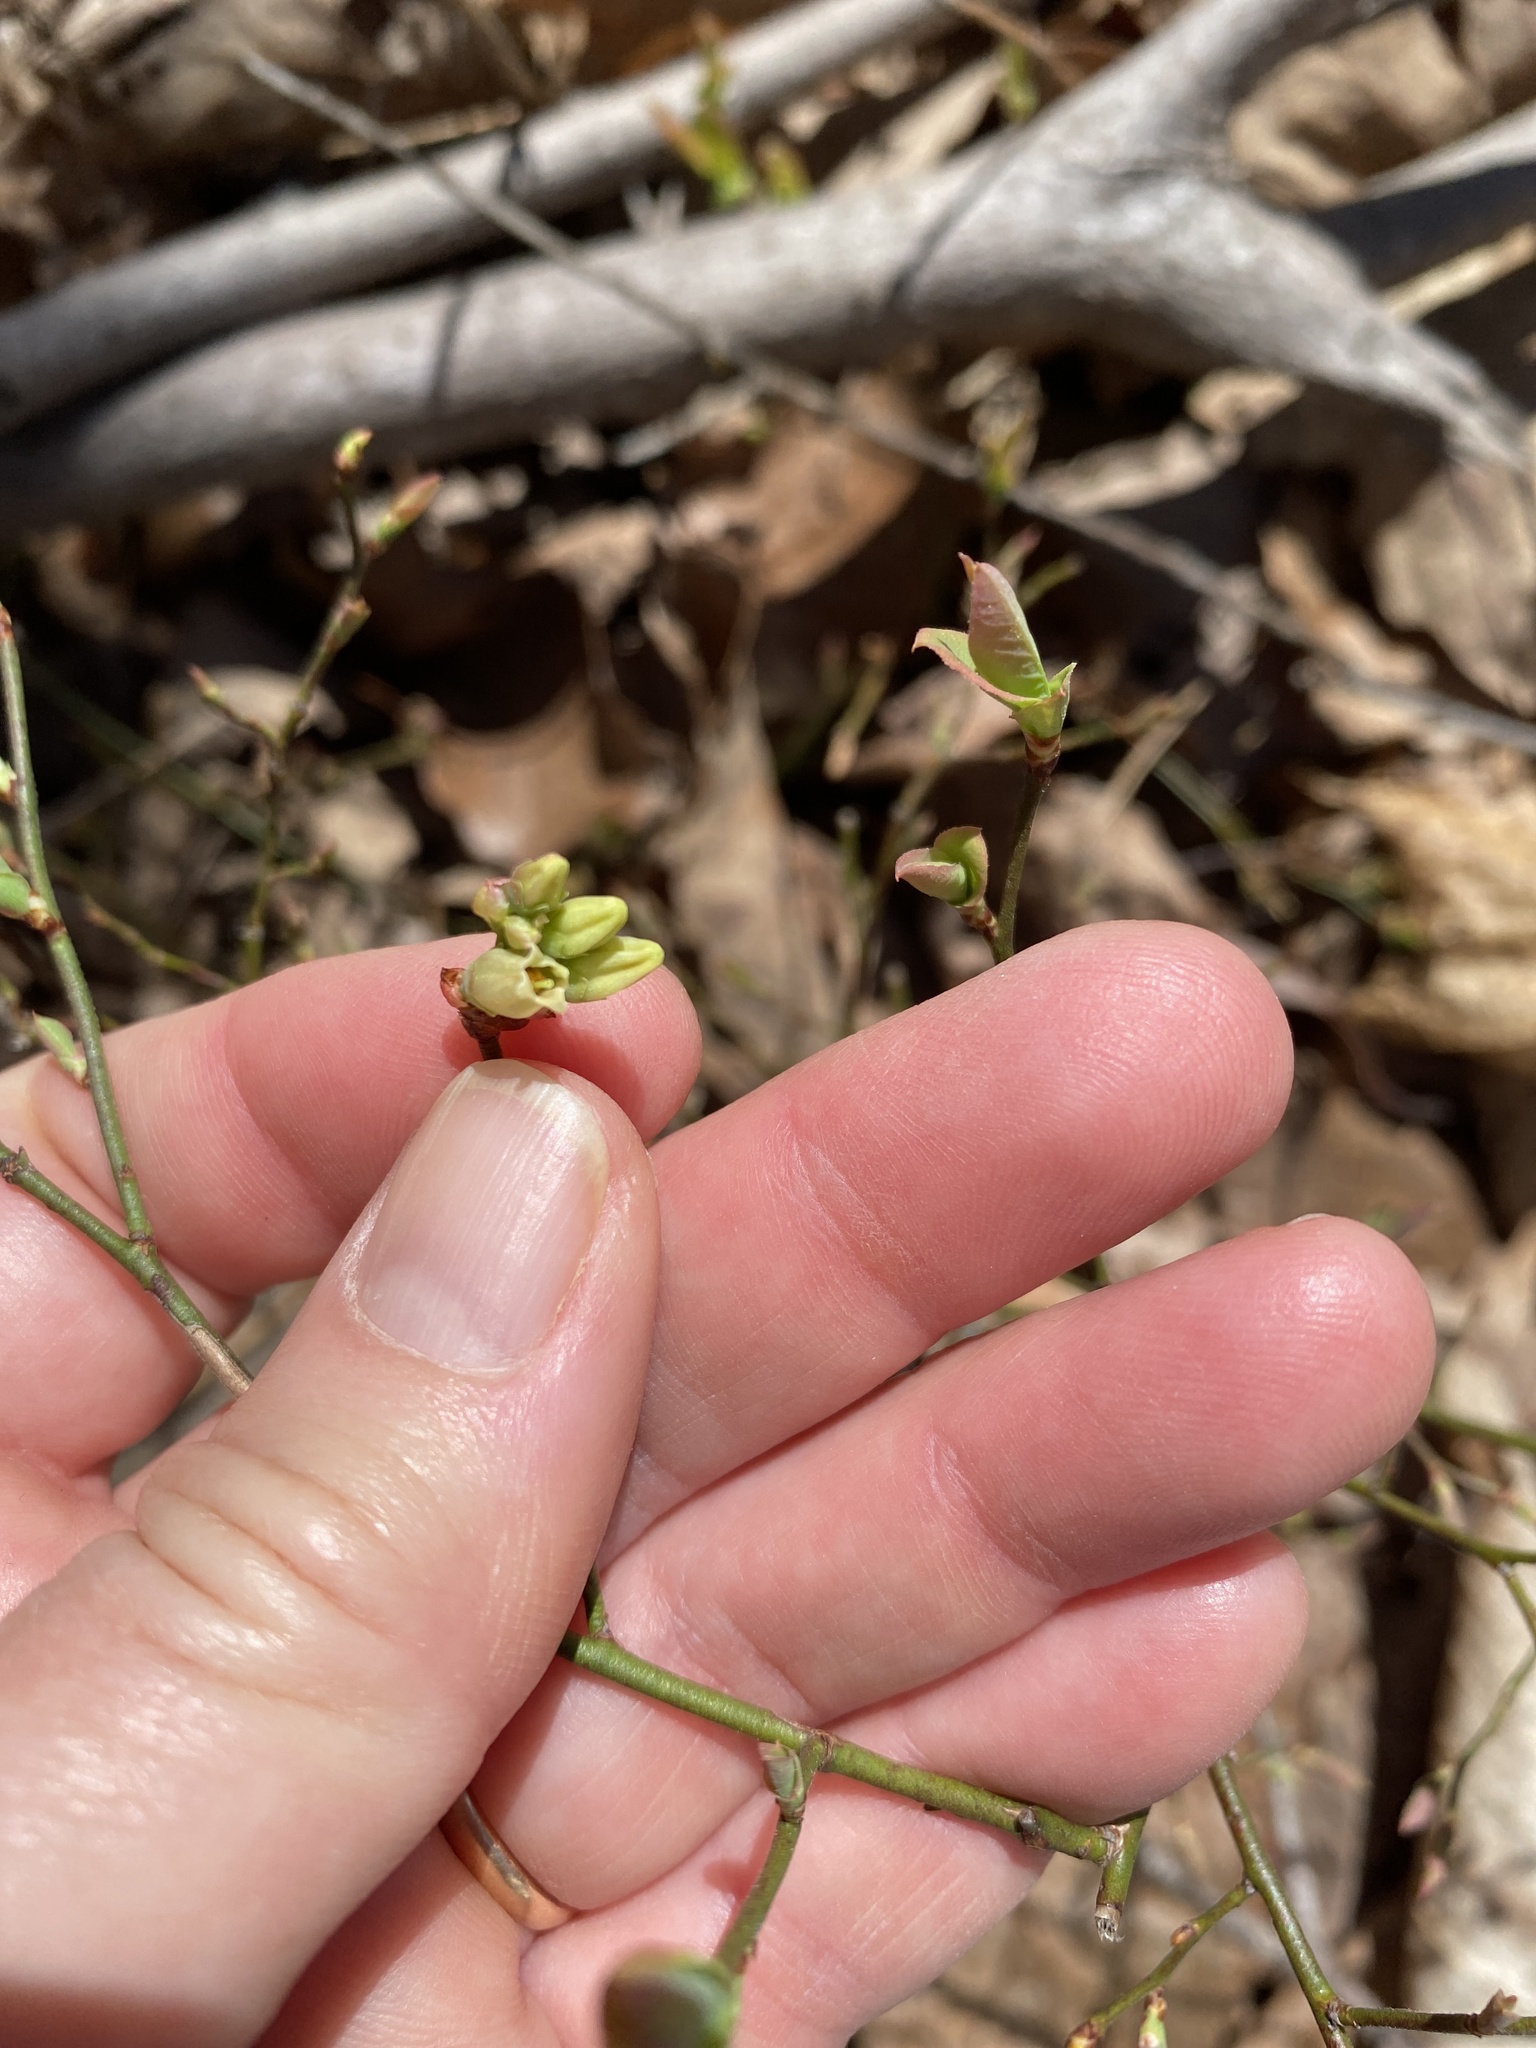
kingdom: Plantae
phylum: Tracheophyta
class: Magnoliopsida
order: Ericales
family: Ericaceae
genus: Vaccinium
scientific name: Vaccinium pallidum
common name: Blue ridge blueberry
